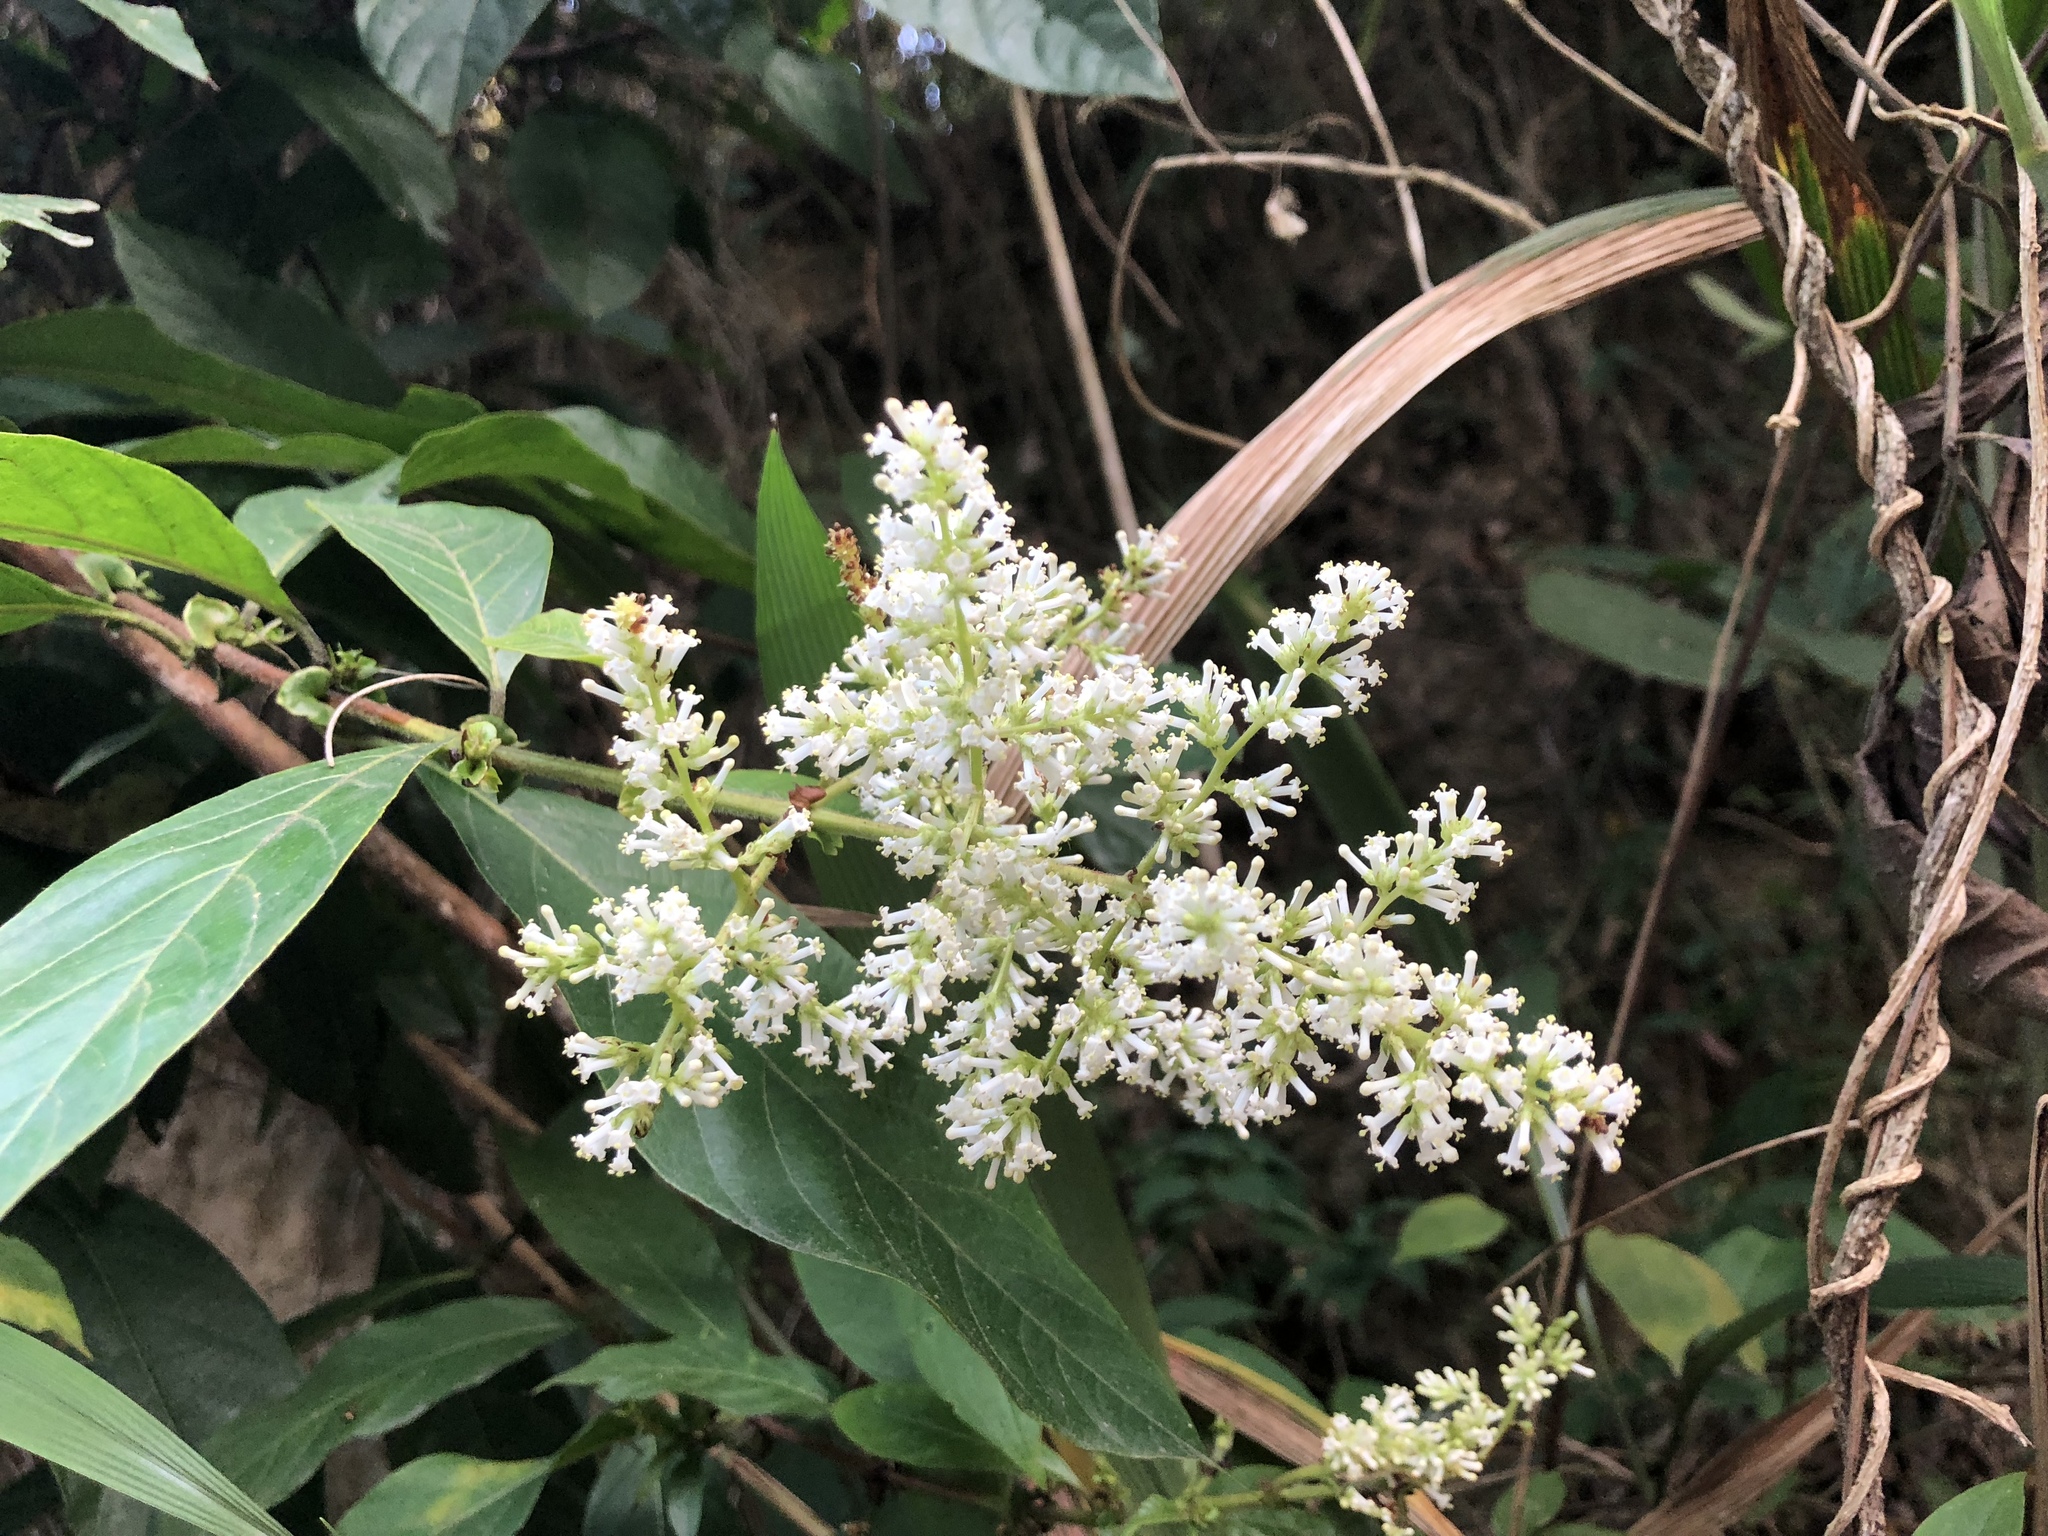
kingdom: Plantae
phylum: Tracheophyta
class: Magnoliopsida
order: Gentianales
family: Rubiaceae
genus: Wendlandia
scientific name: Wendlandia uvariifolia
